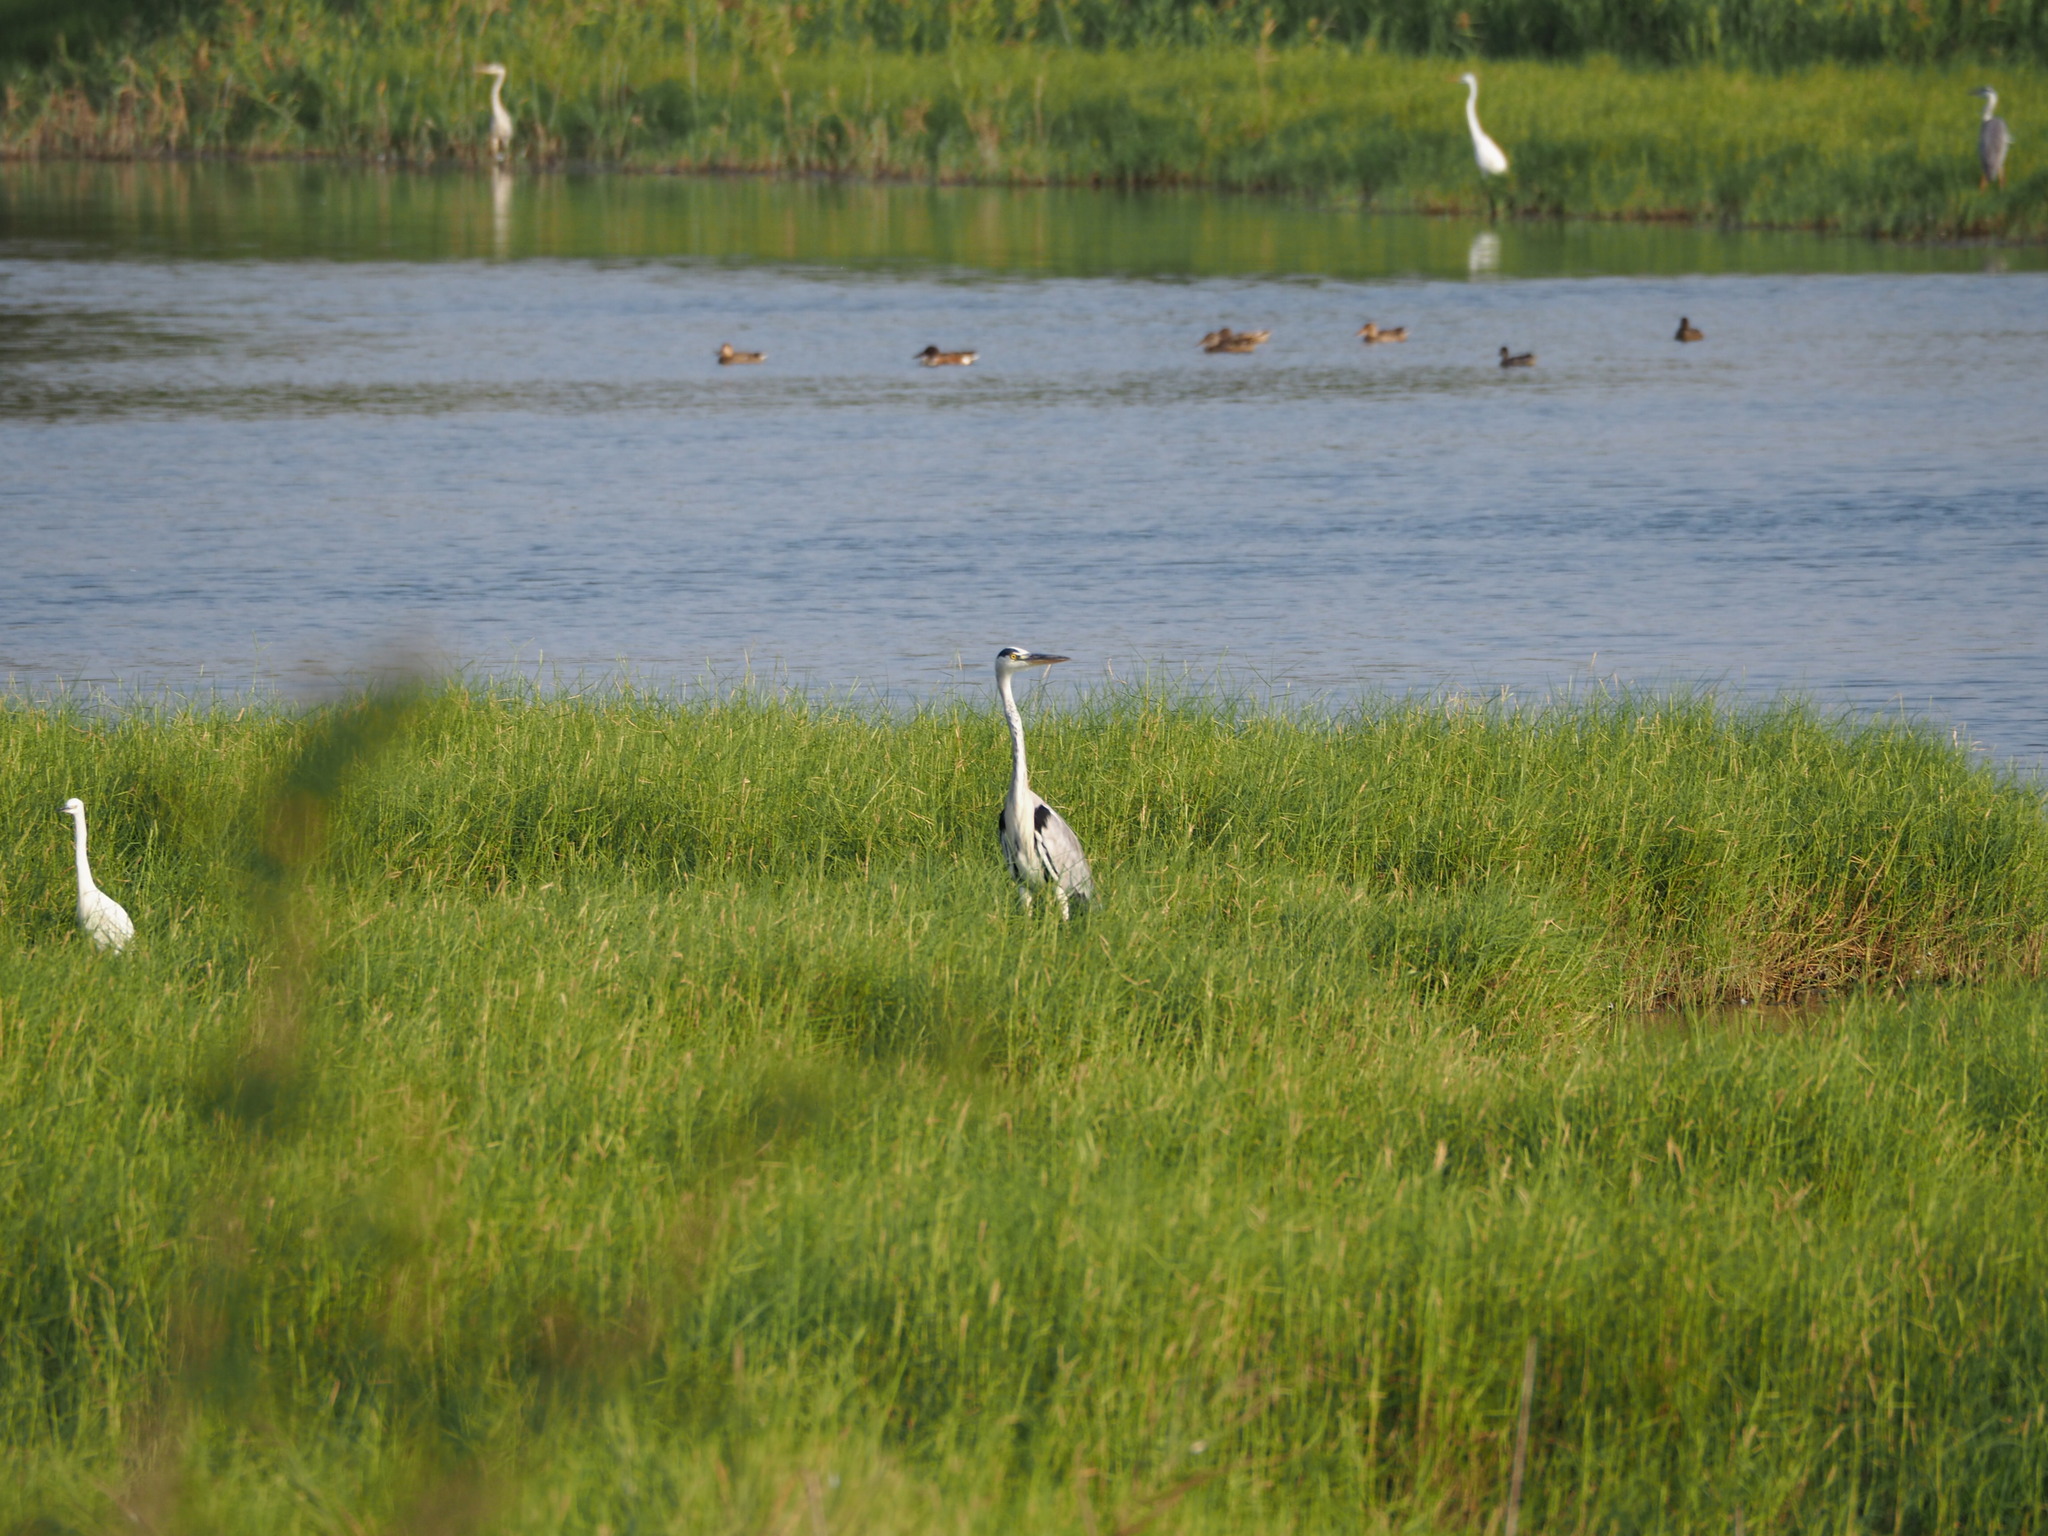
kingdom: Animalia
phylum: Chordata
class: Aves
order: Pelecaniformes
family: Ardeidae
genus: Ardea
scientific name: Ardea cinerea
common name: Grey heron
